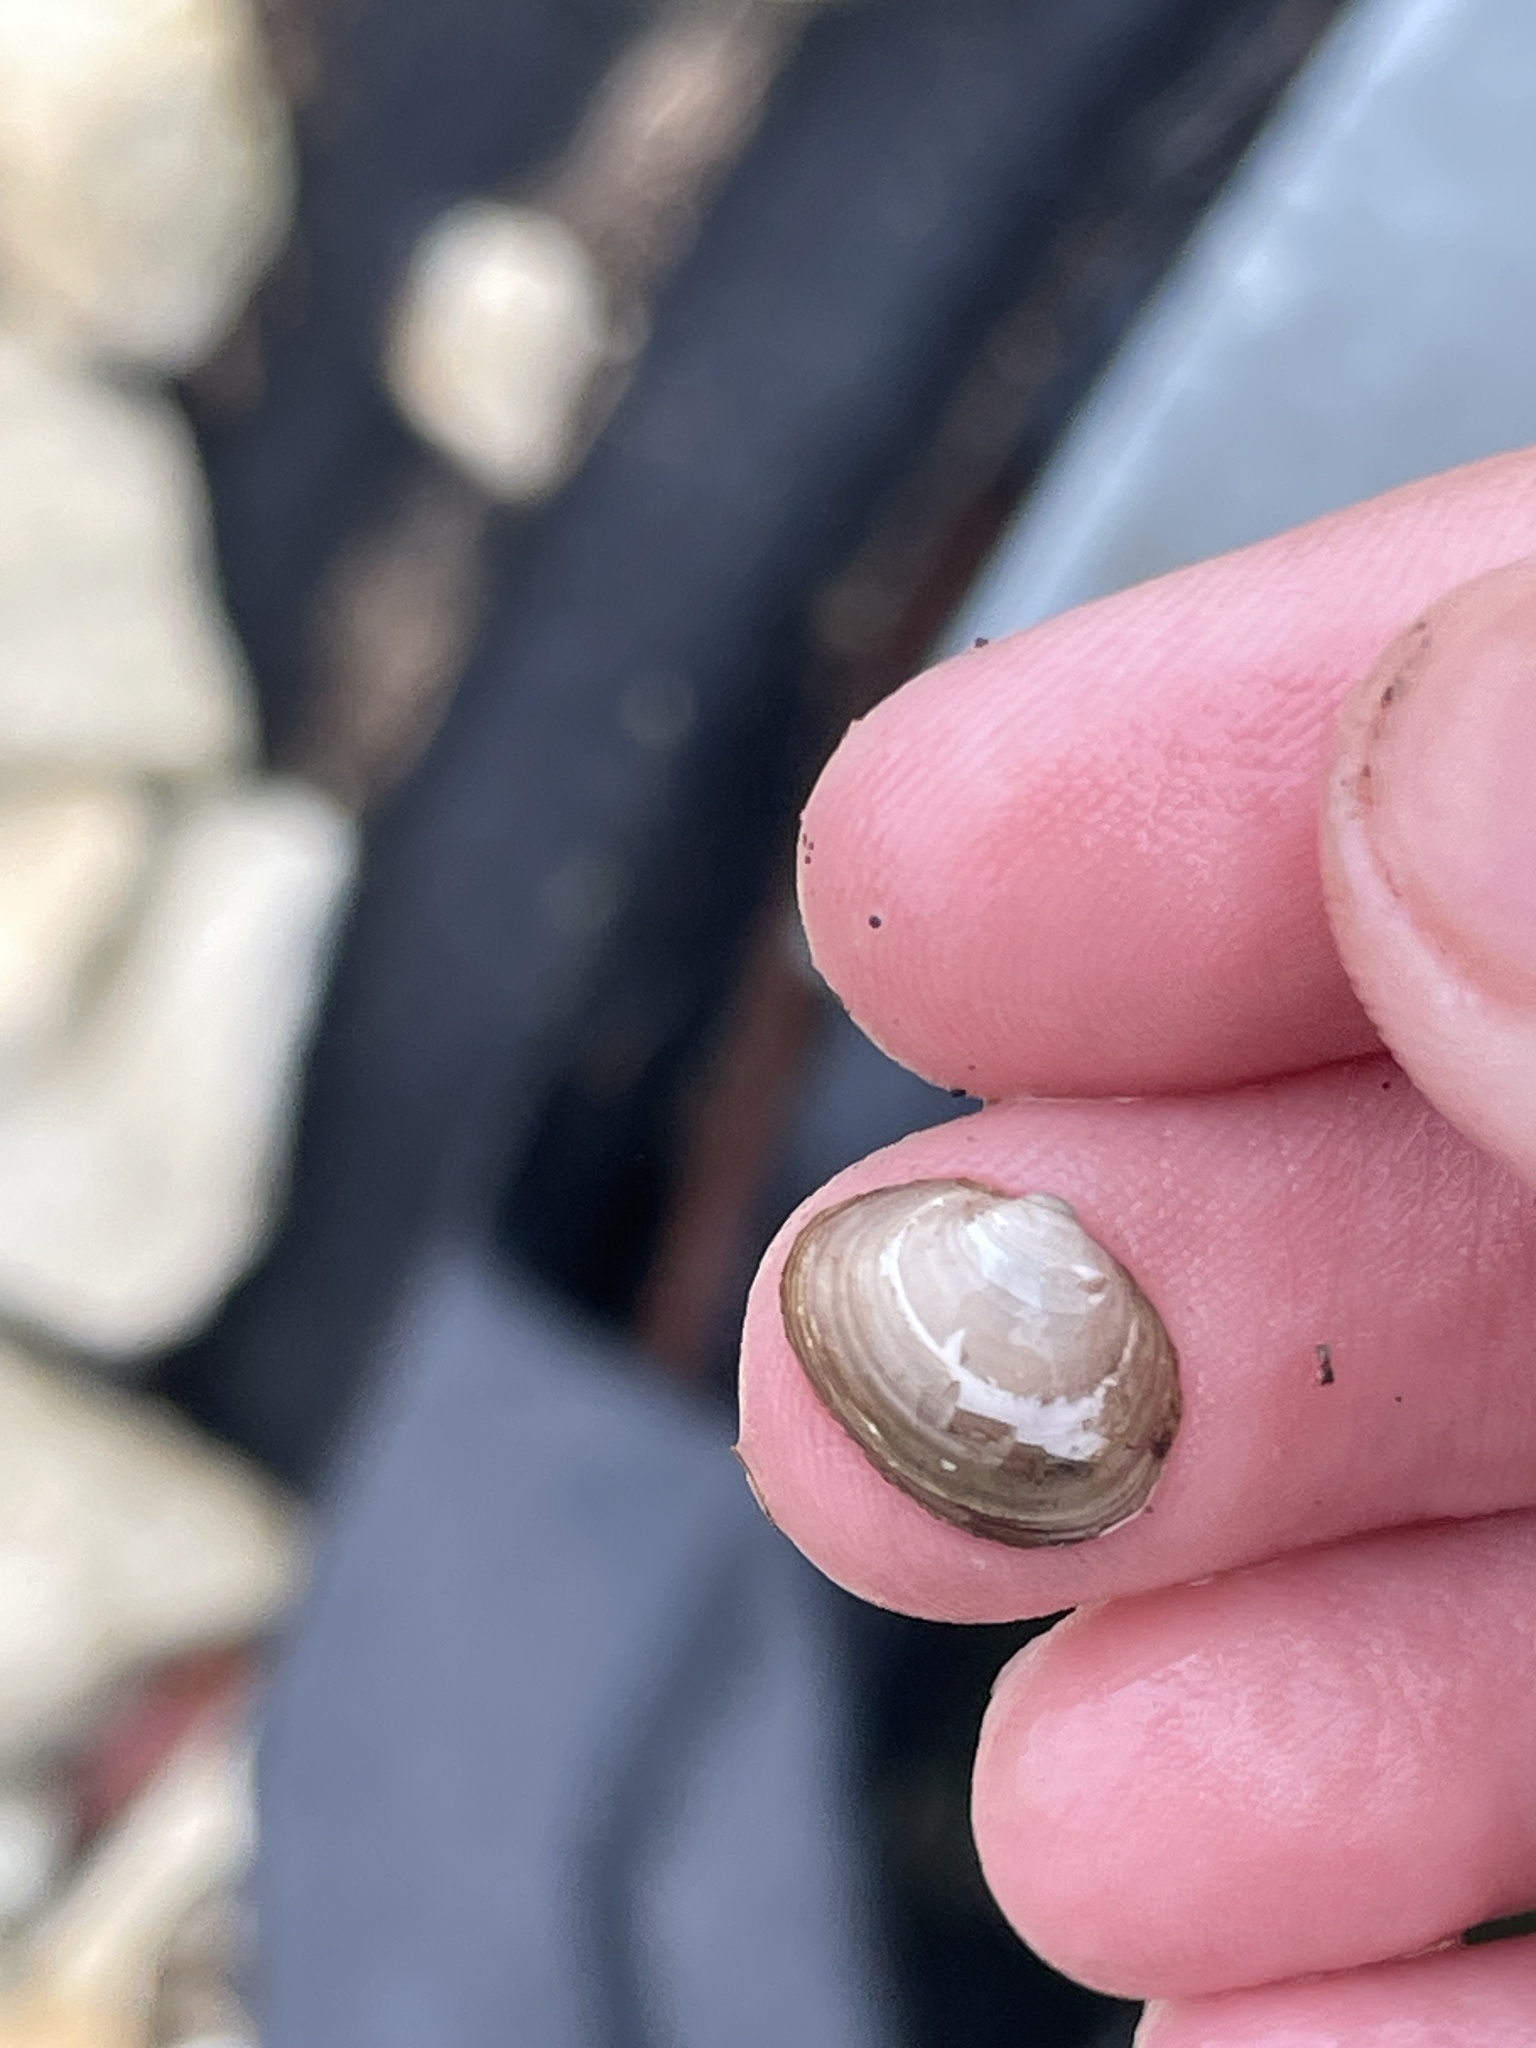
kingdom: Animalia
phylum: Mollusca
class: Bivalvia
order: Sphaeriida
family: Sphaeriidae
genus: Musculium
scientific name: Musculium lacustre
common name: Lake fingernailclam
